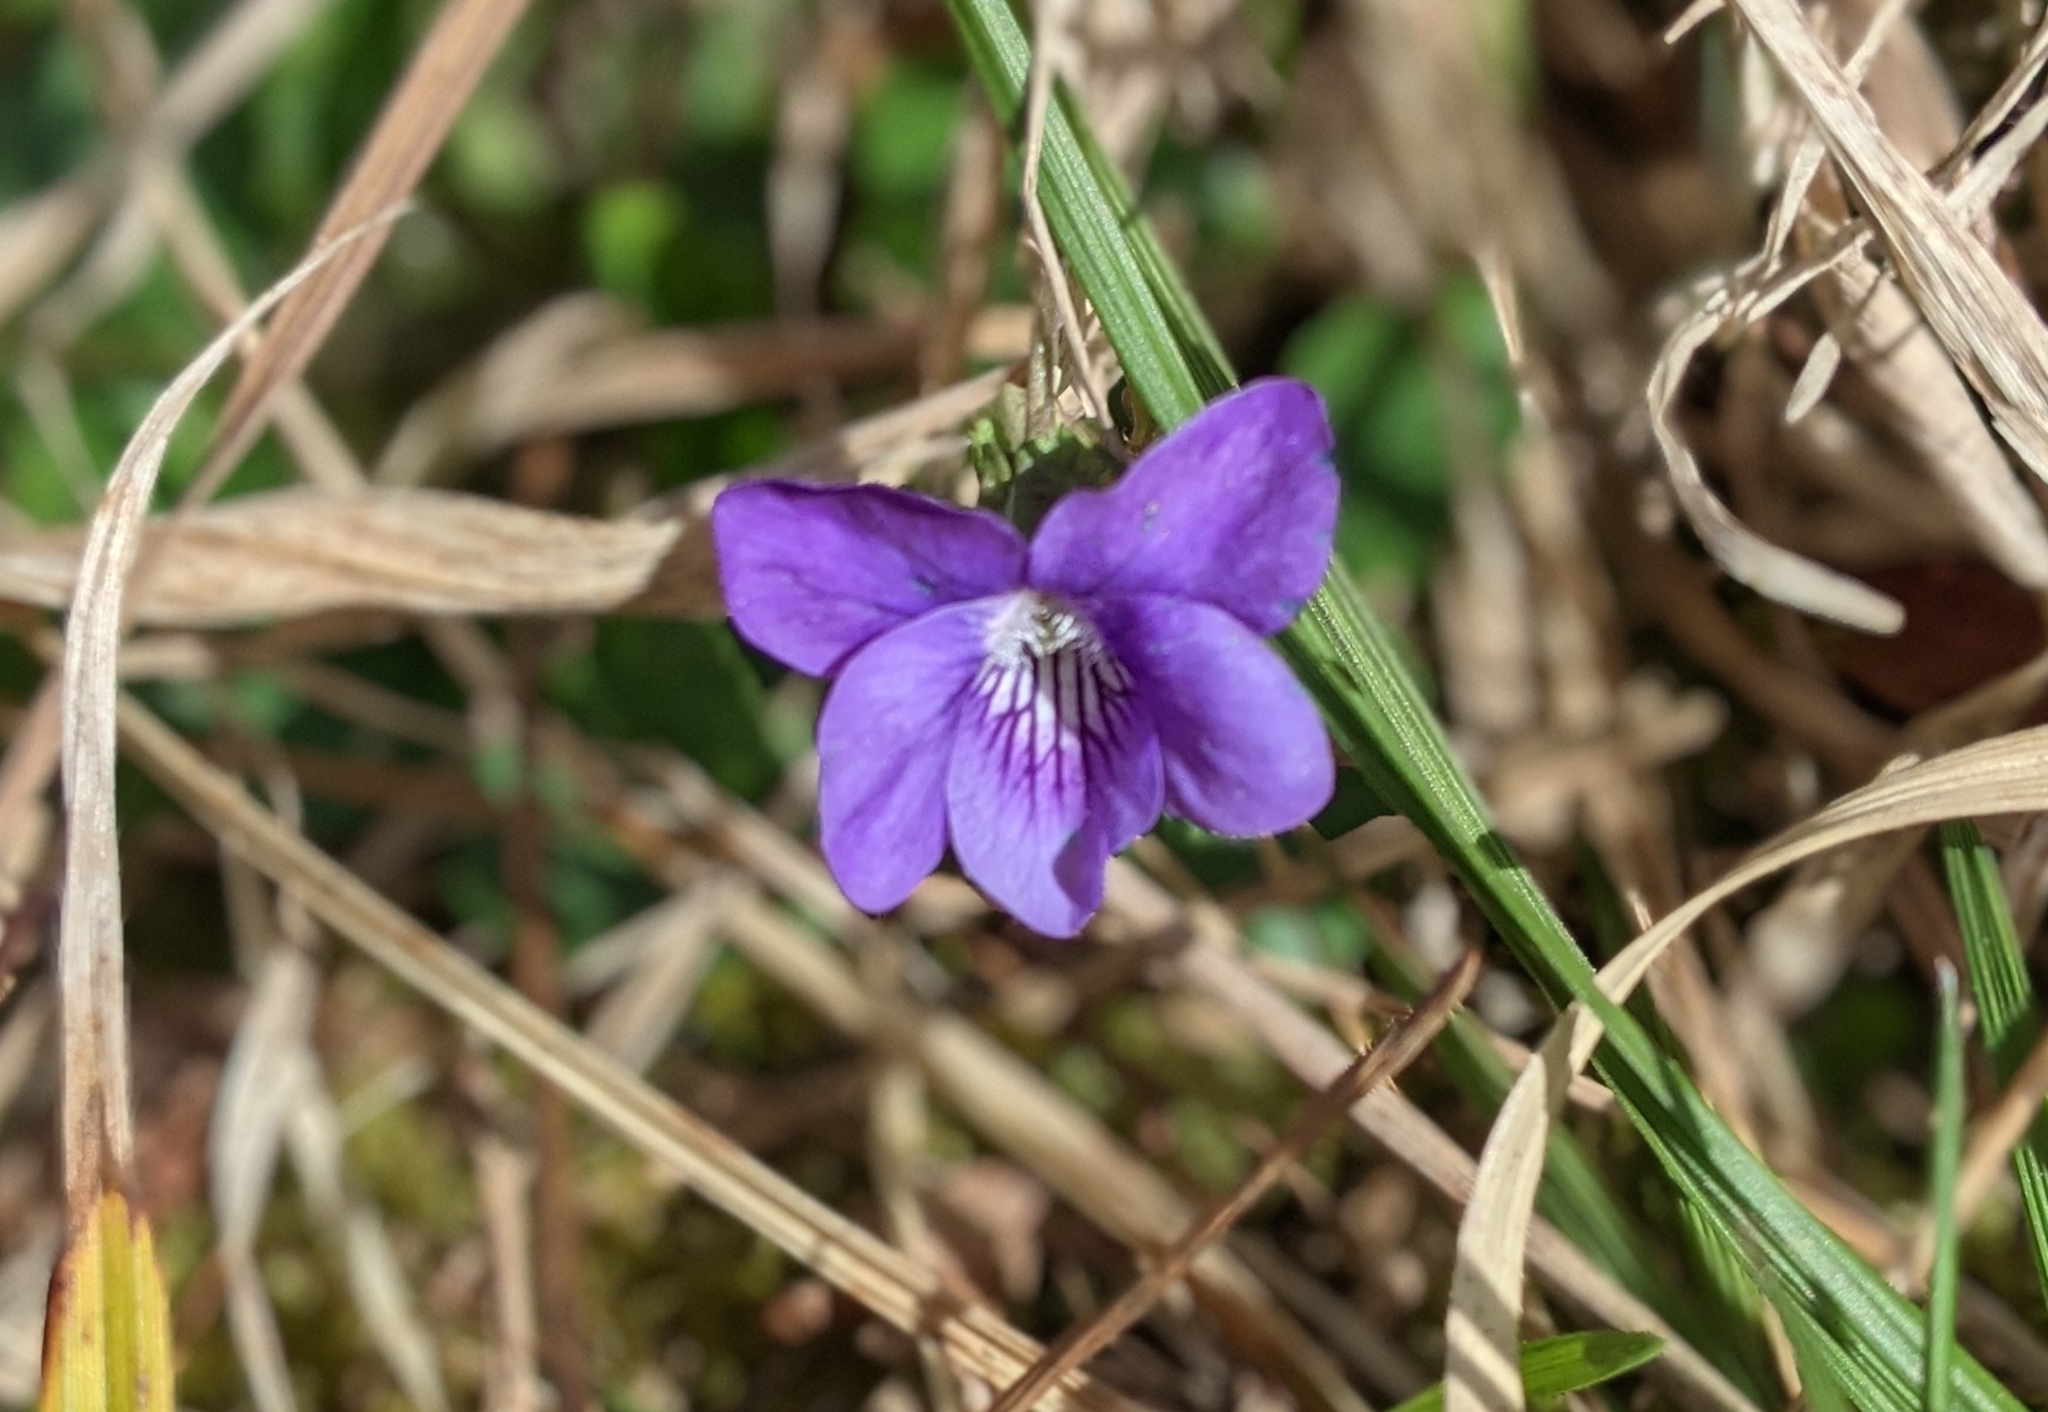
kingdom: Plantae
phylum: Tracheophyta
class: Magnoliopsida
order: Malpighiales
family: Violaceae
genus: Viola
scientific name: Viola riviniana
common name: Common dog-violet
